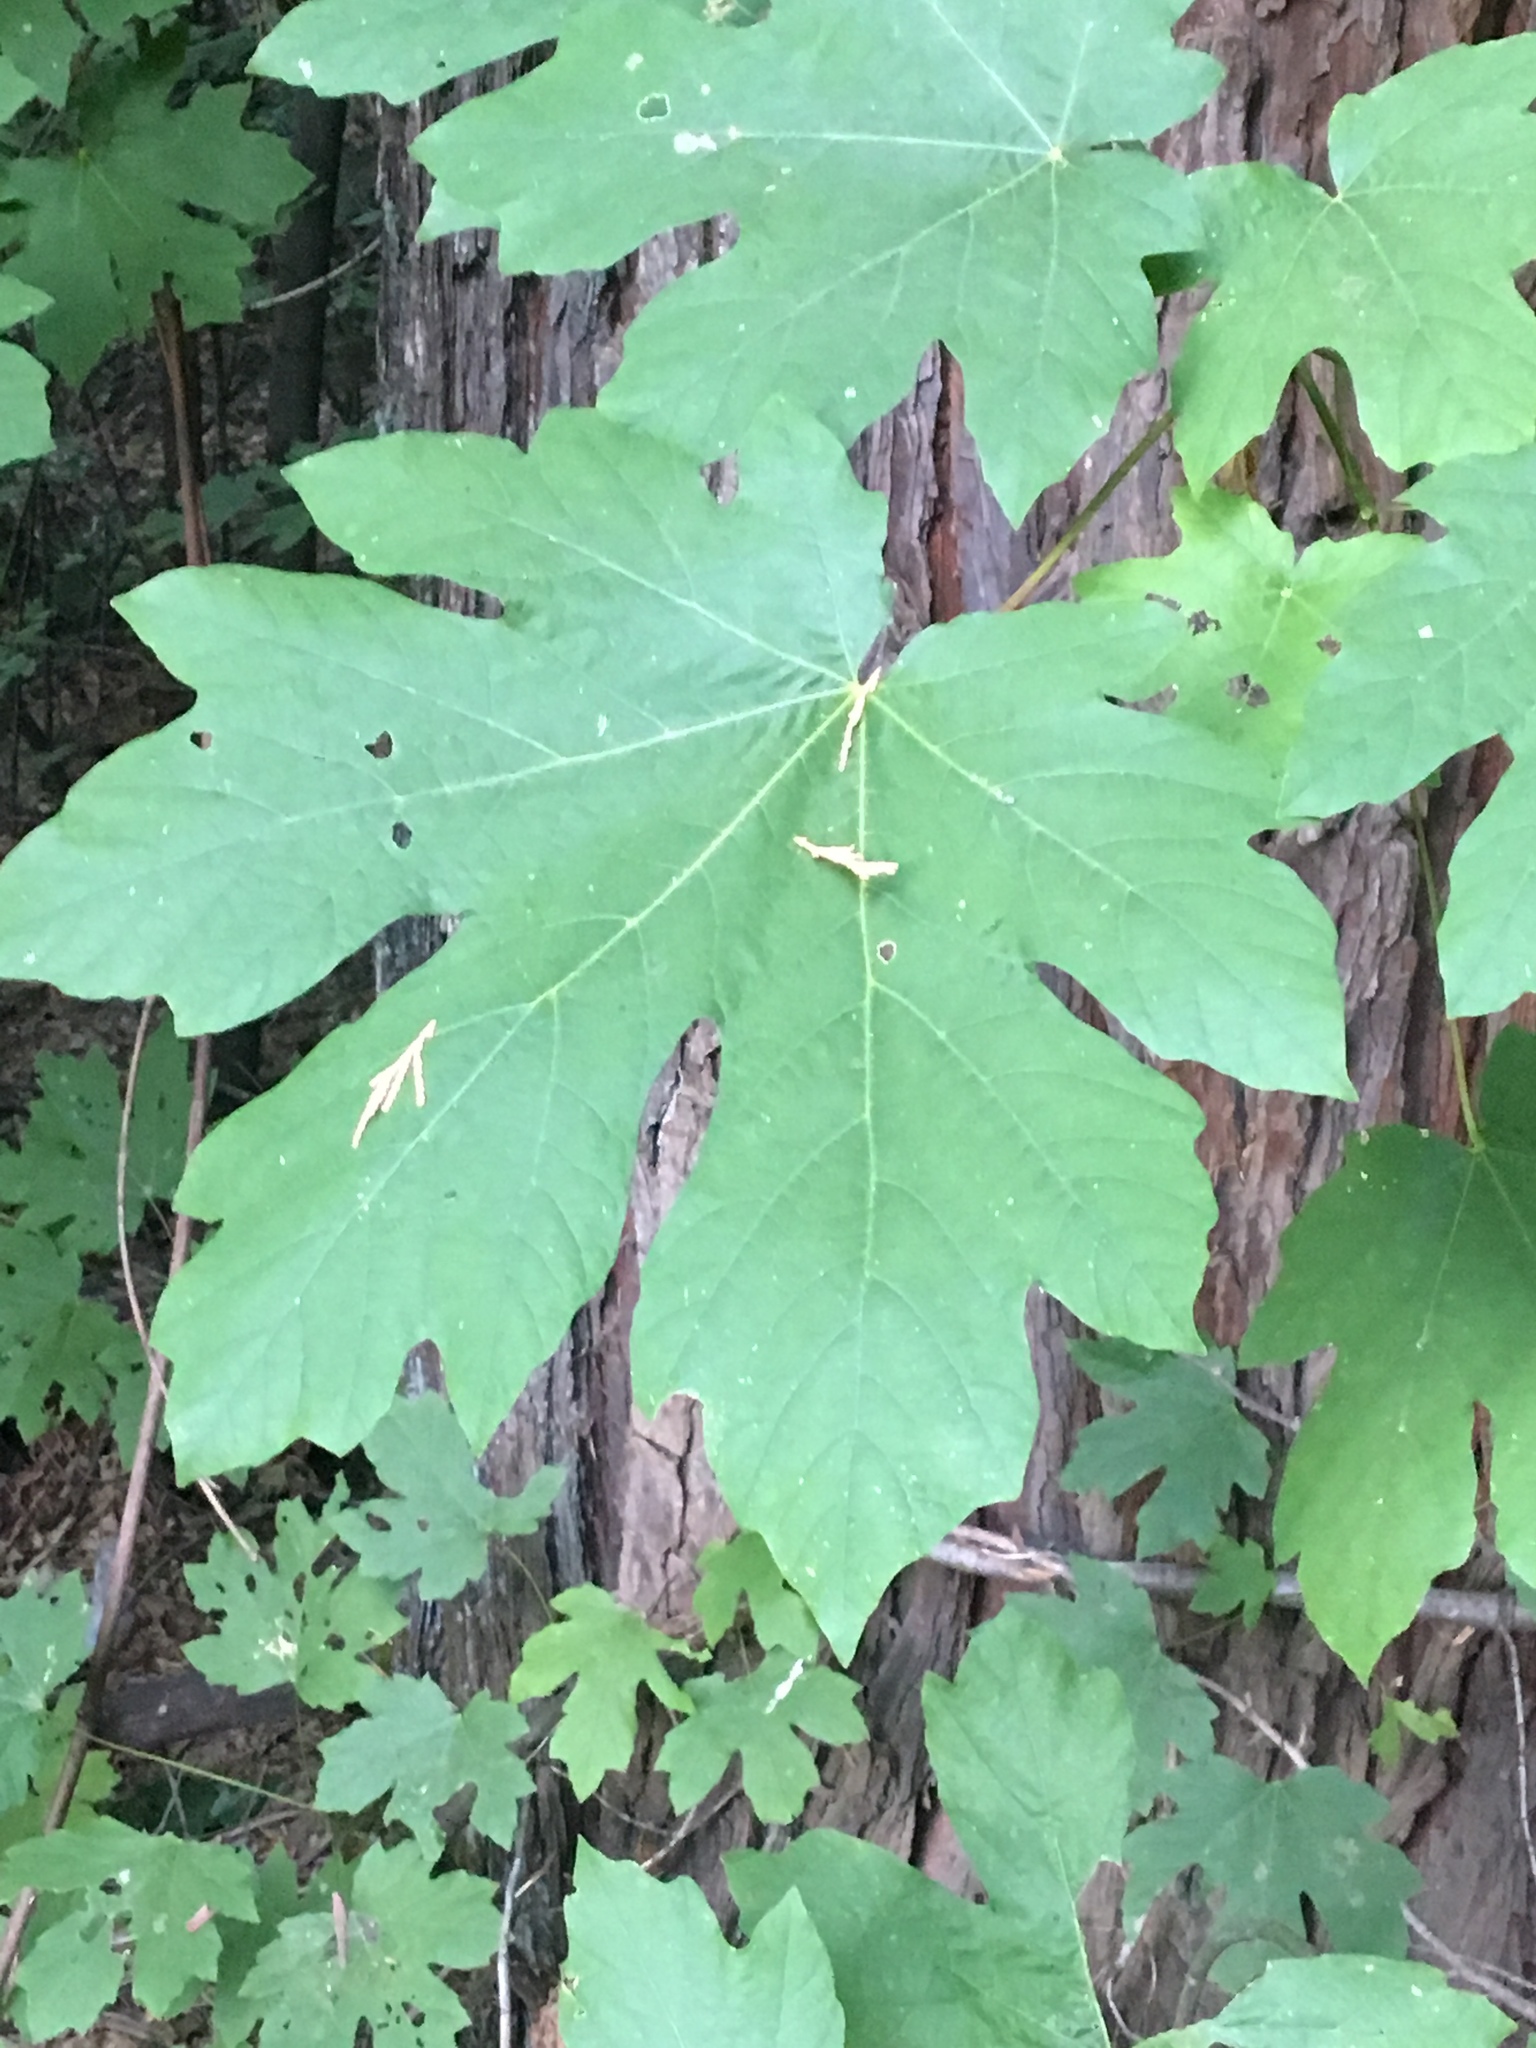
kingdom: Plantae
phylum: Tracheophyta
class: Magnoliopsida
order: Sapindales
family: Sapindaceae
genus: Acer
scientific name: Acer macrophyllum
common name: Oregon maple
